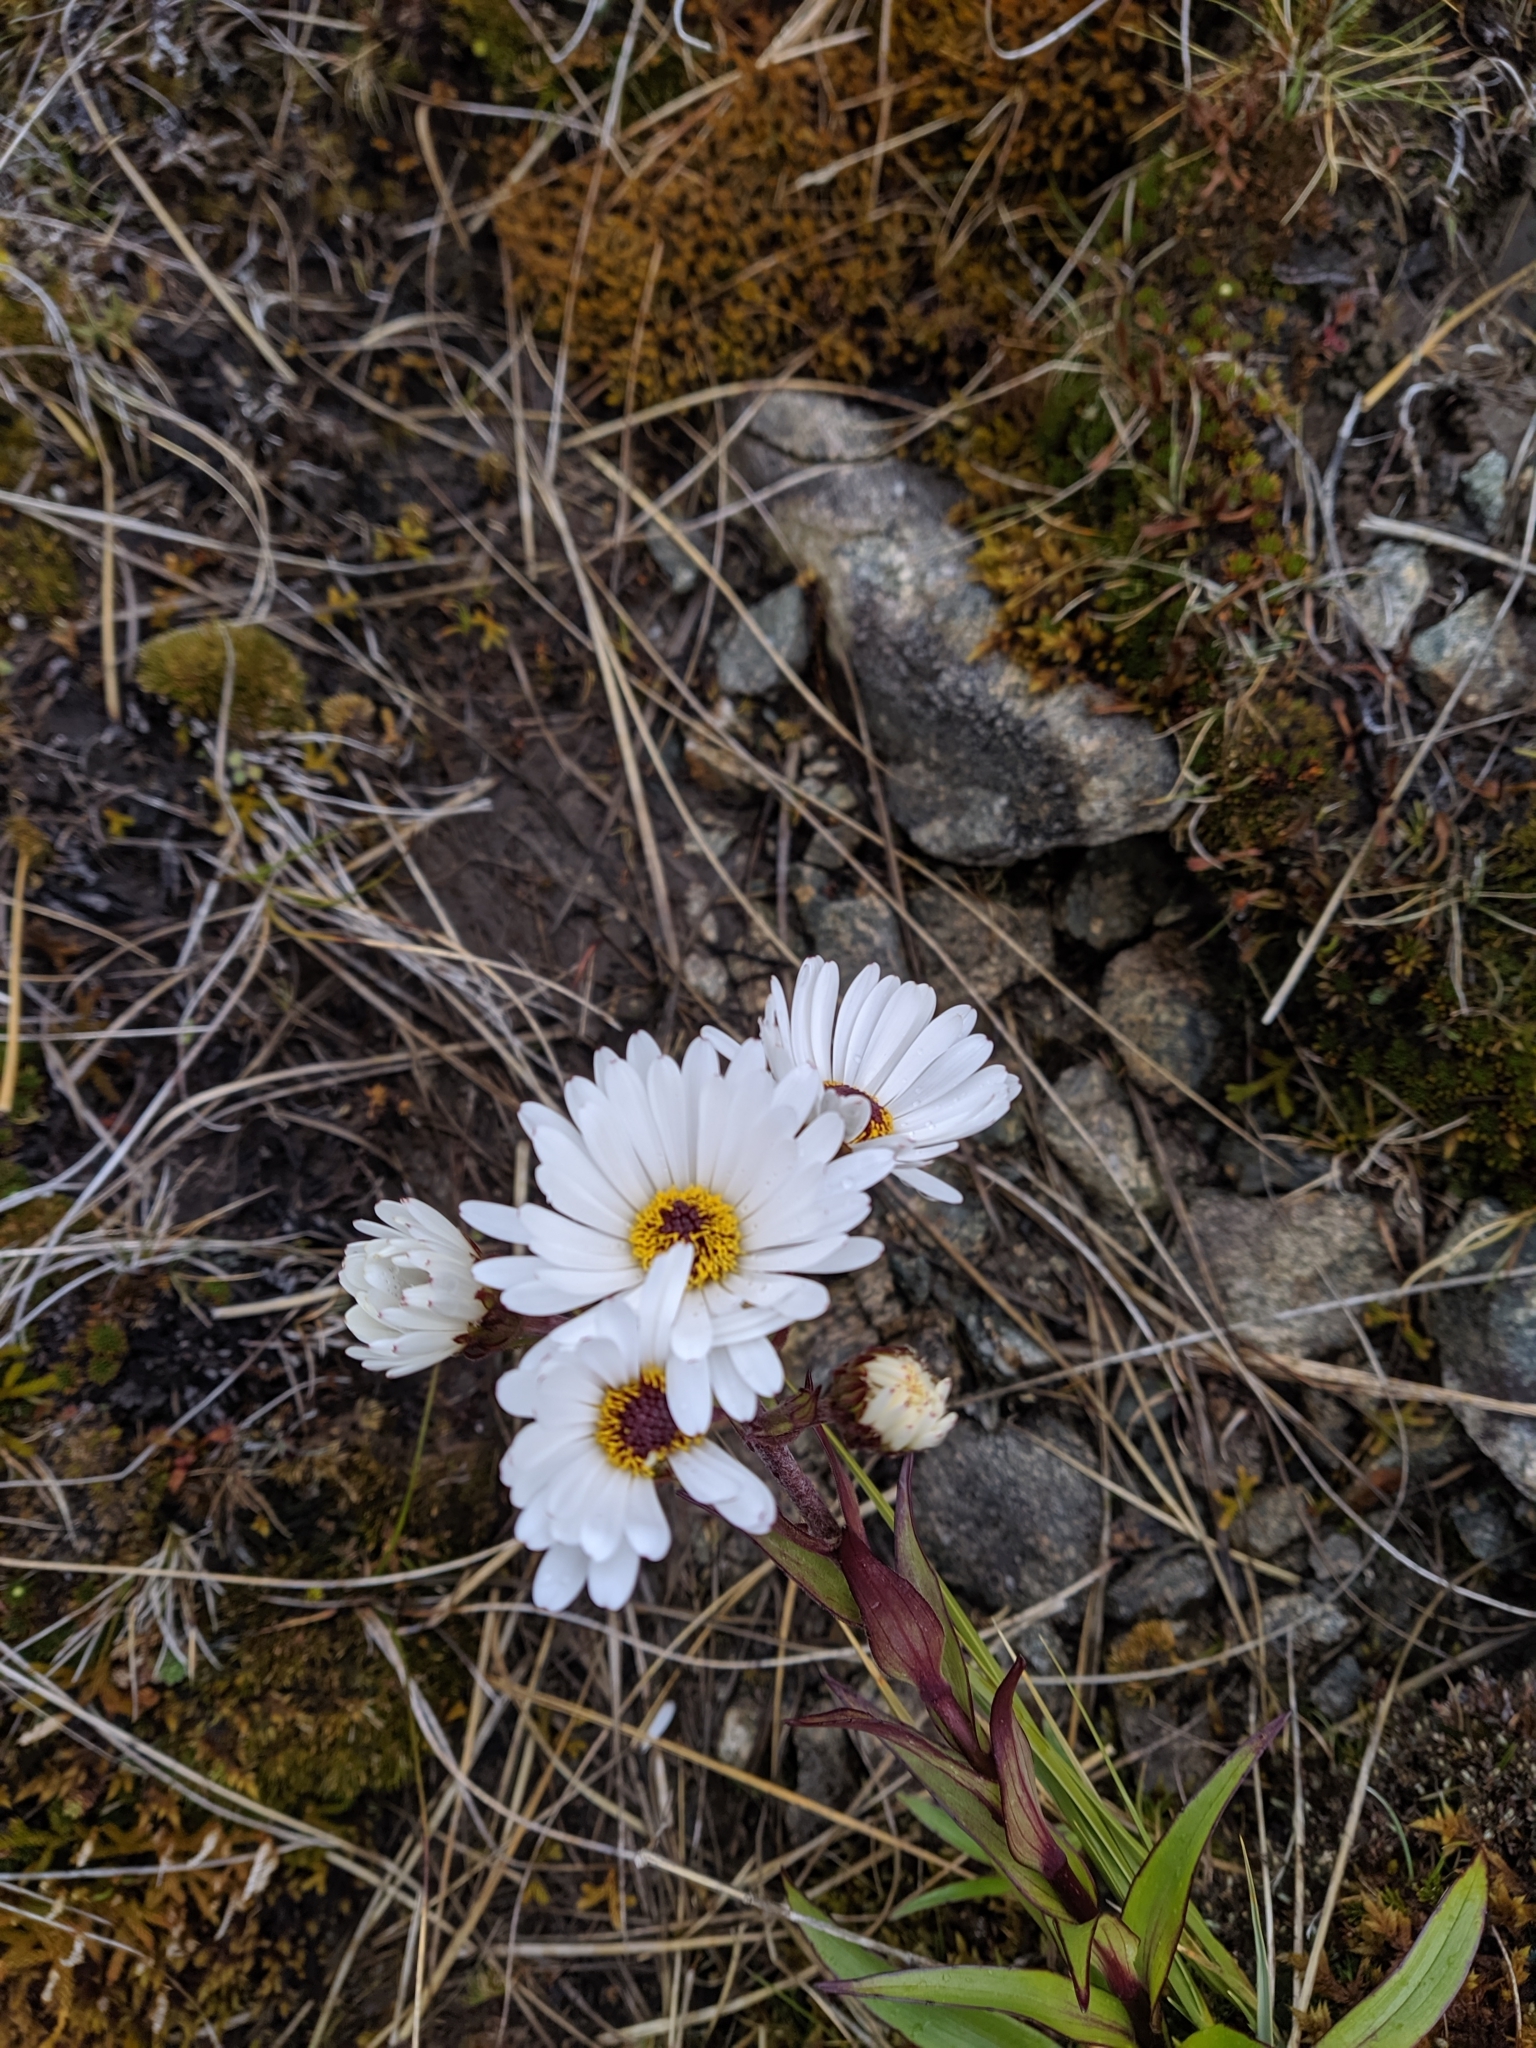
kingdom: Plantae
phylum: Tracheophyta
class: Magnoliopsida
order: Asterales
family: Asteraceae
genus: Dolichoglottis
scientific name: Dolichoglottis scorzoneroides
